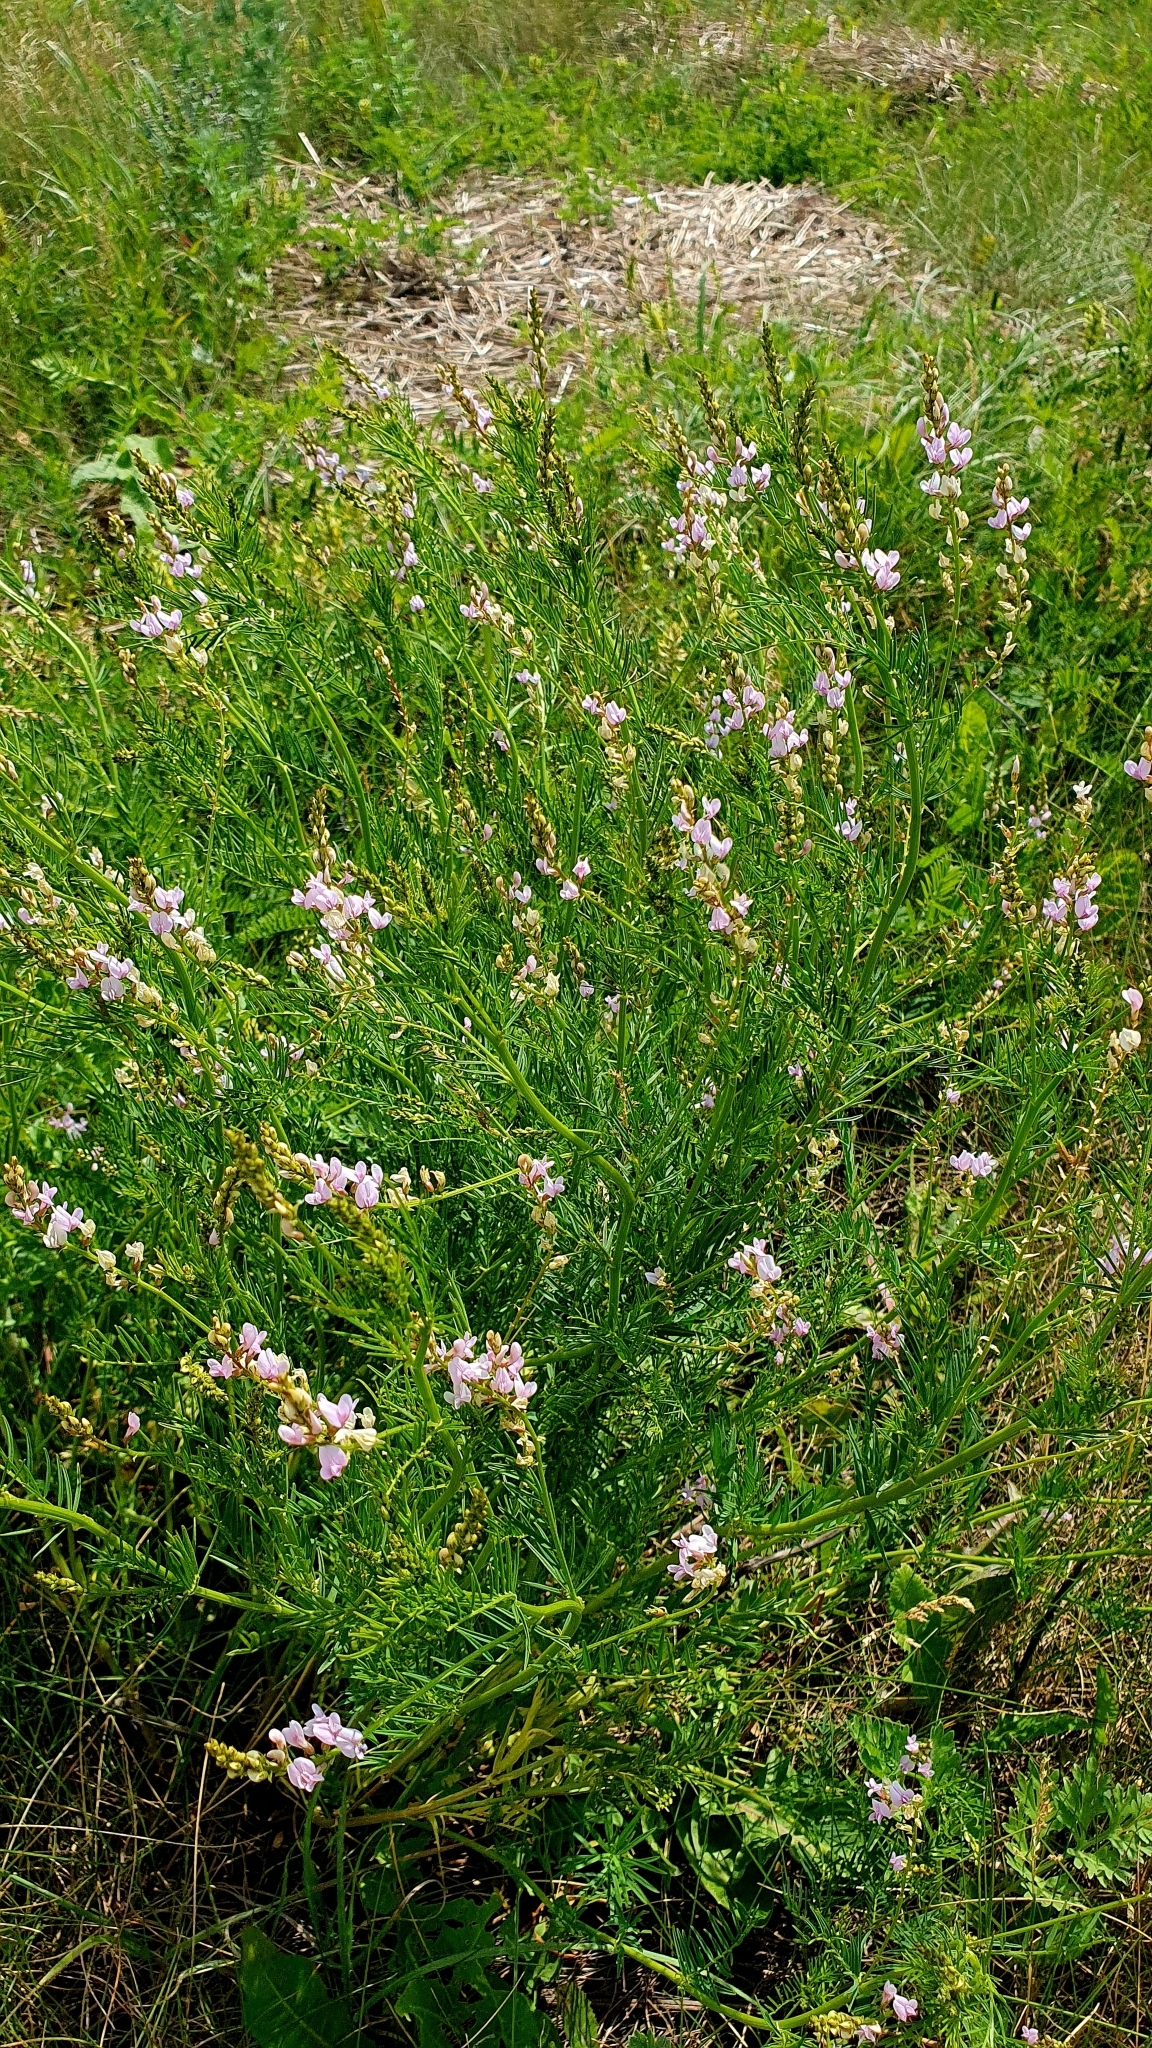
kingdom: Plantae
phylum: Tracheophyta
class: Magnoliopsida
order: Fabales
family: Fabaceae
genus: Astragalus
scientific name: Astragalus sulcatus
